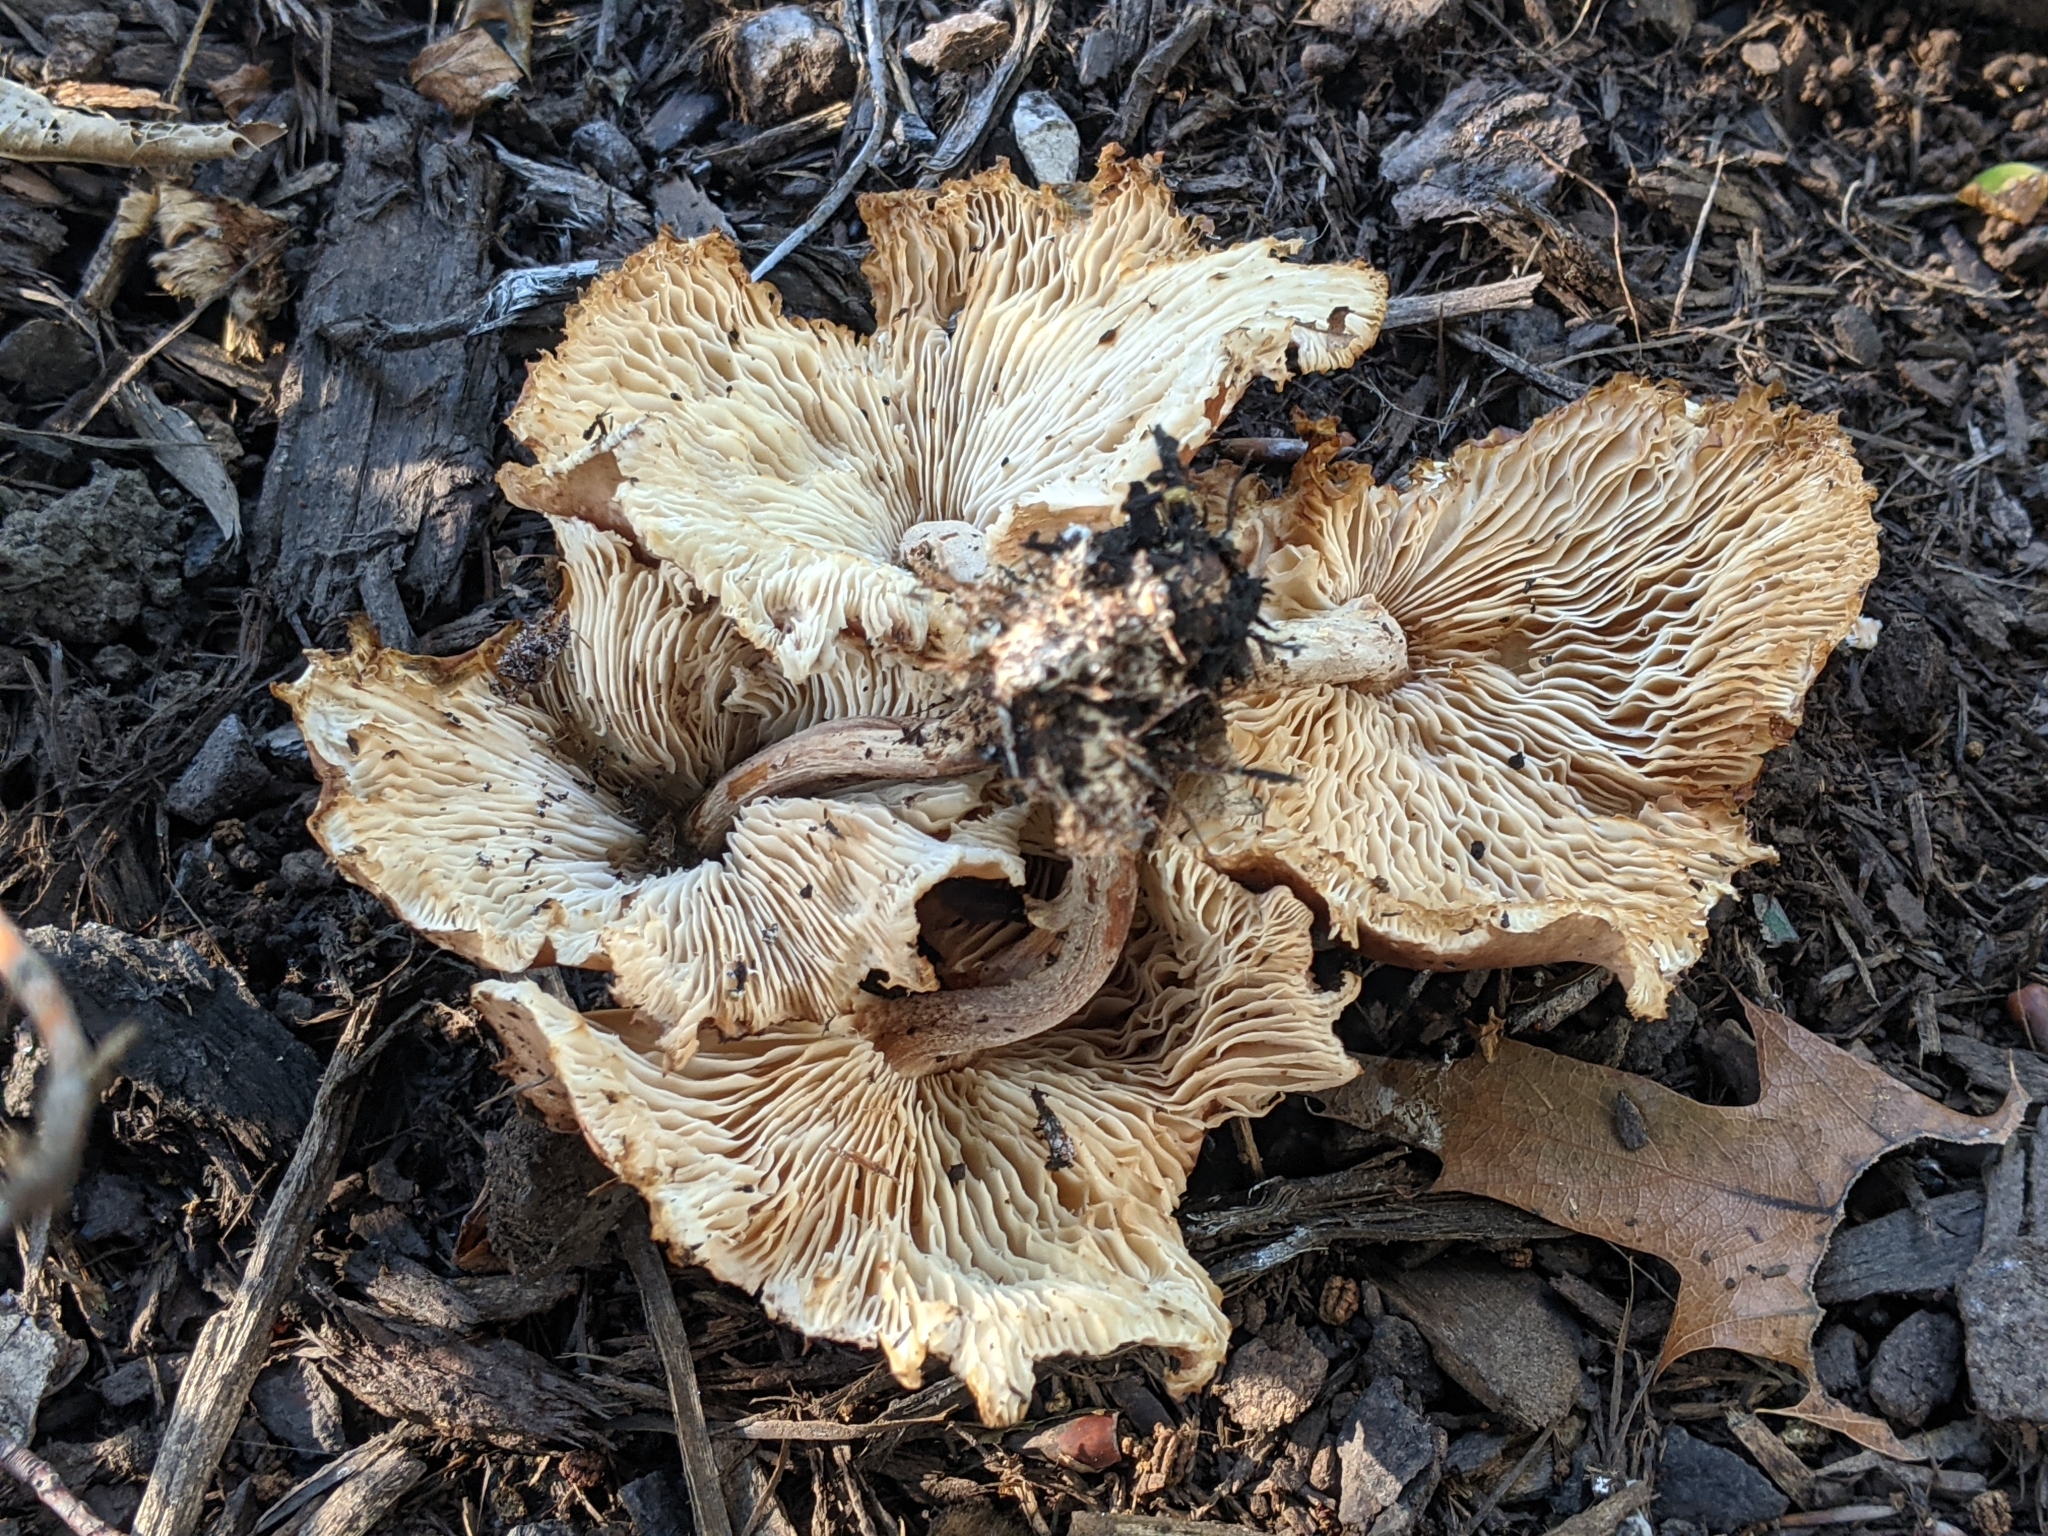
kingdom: Fungi
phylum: Basidiomycota
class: Agaricomycetes
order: Agaricales
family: Omphalotaceae
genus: Collybiopsis
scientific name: Collybiopsis luxurians
